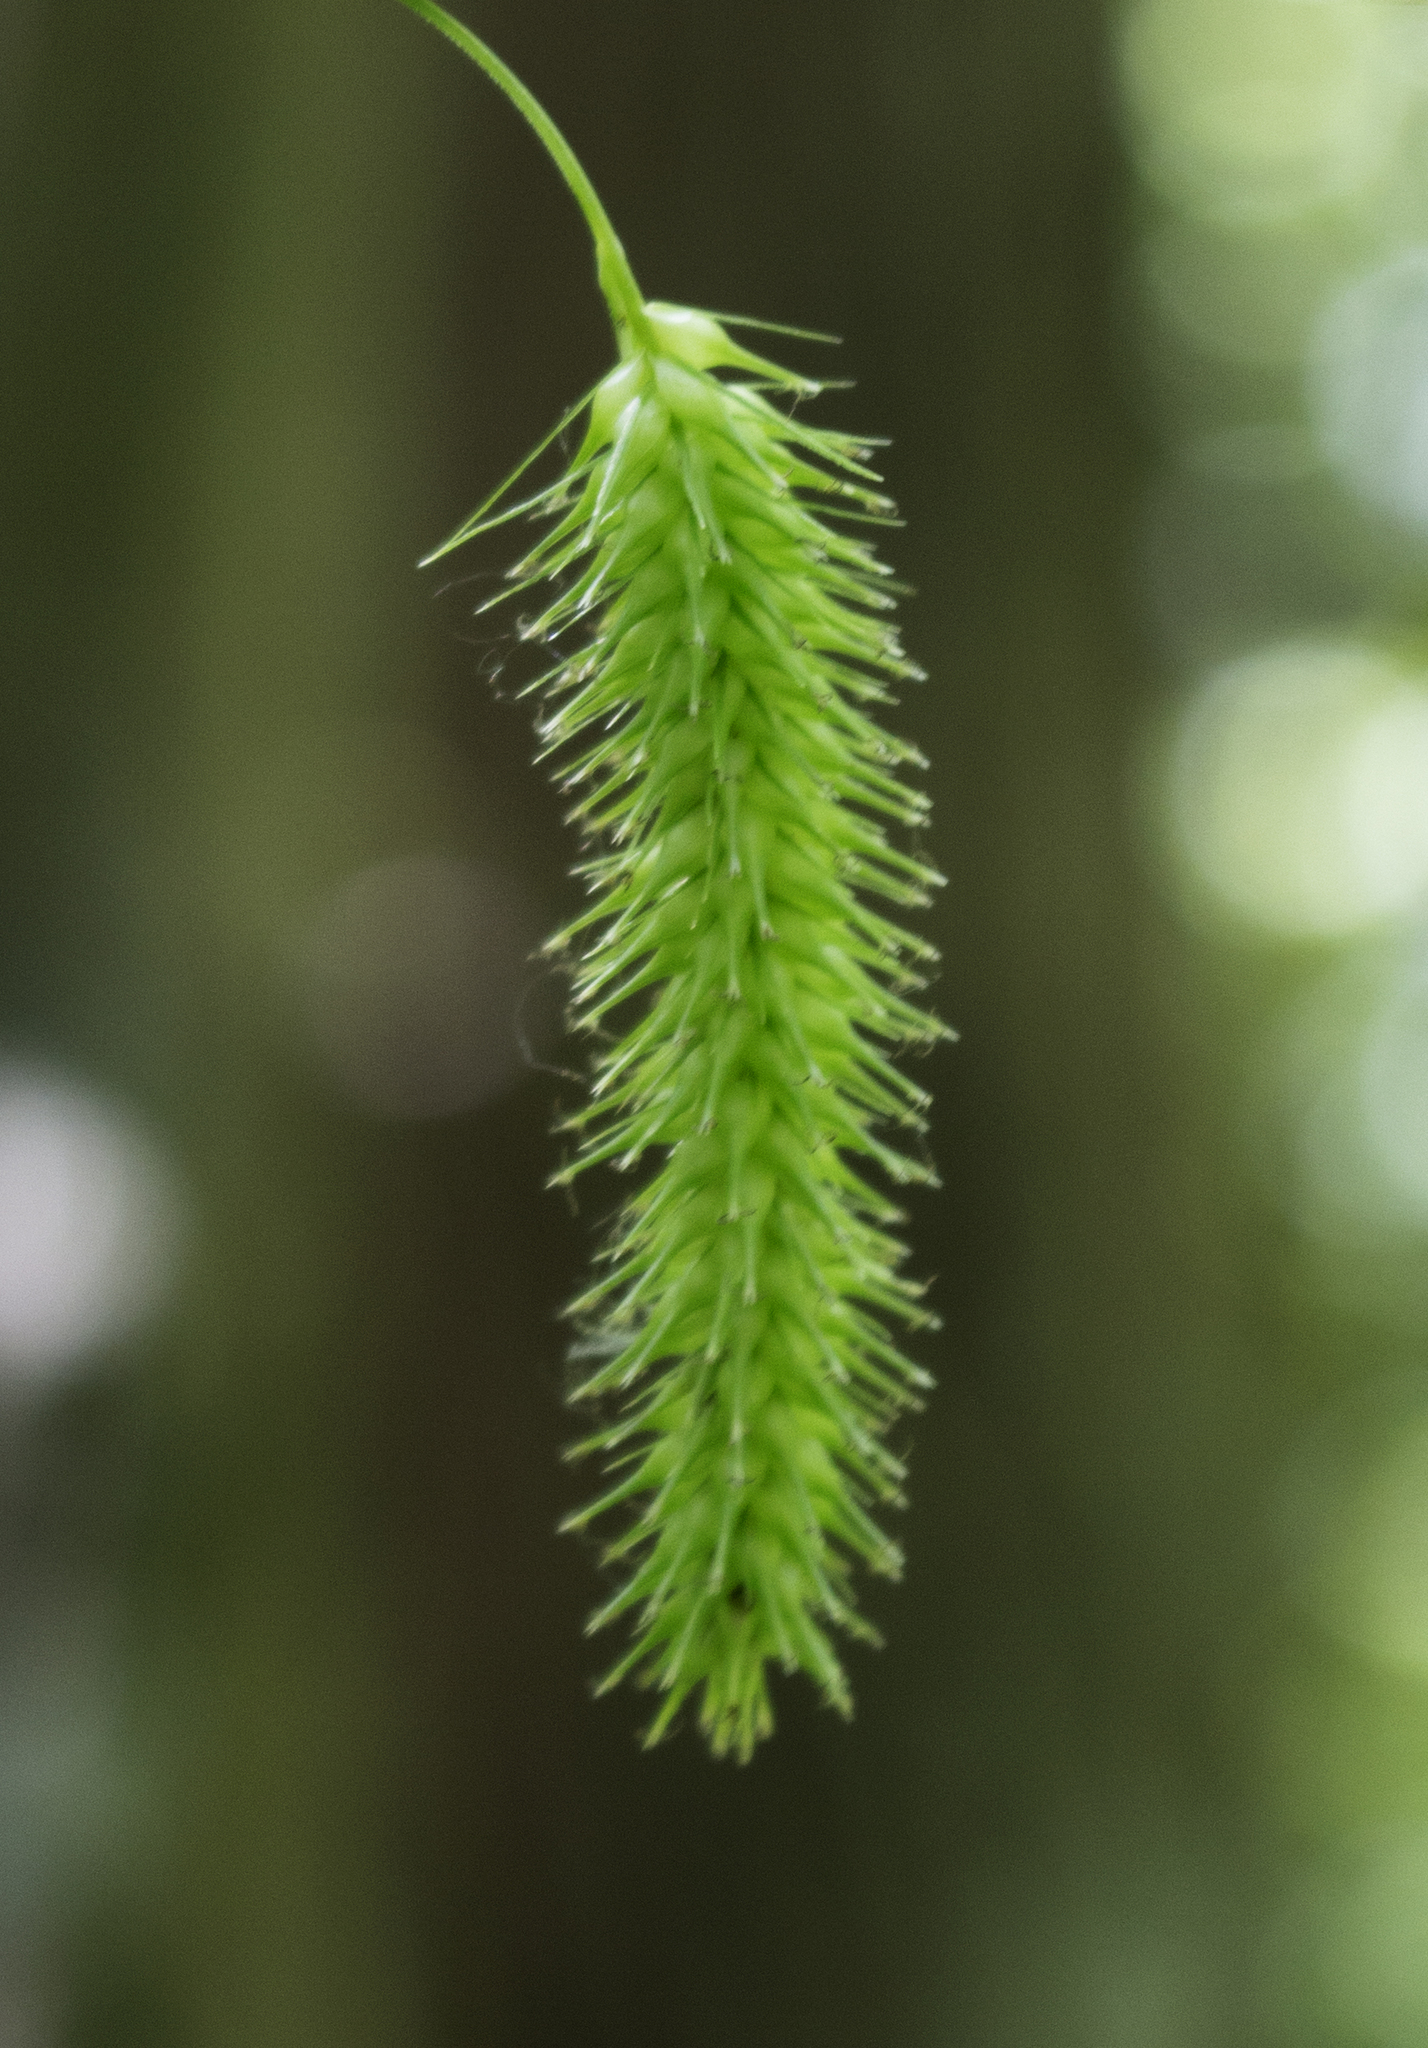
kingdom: Plantae
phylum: Tracheophyta
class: Liliopsida
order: Poales
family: Cyperaceae
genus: Carex
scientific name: Carex hystericina
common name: Bottlebrush sedge
